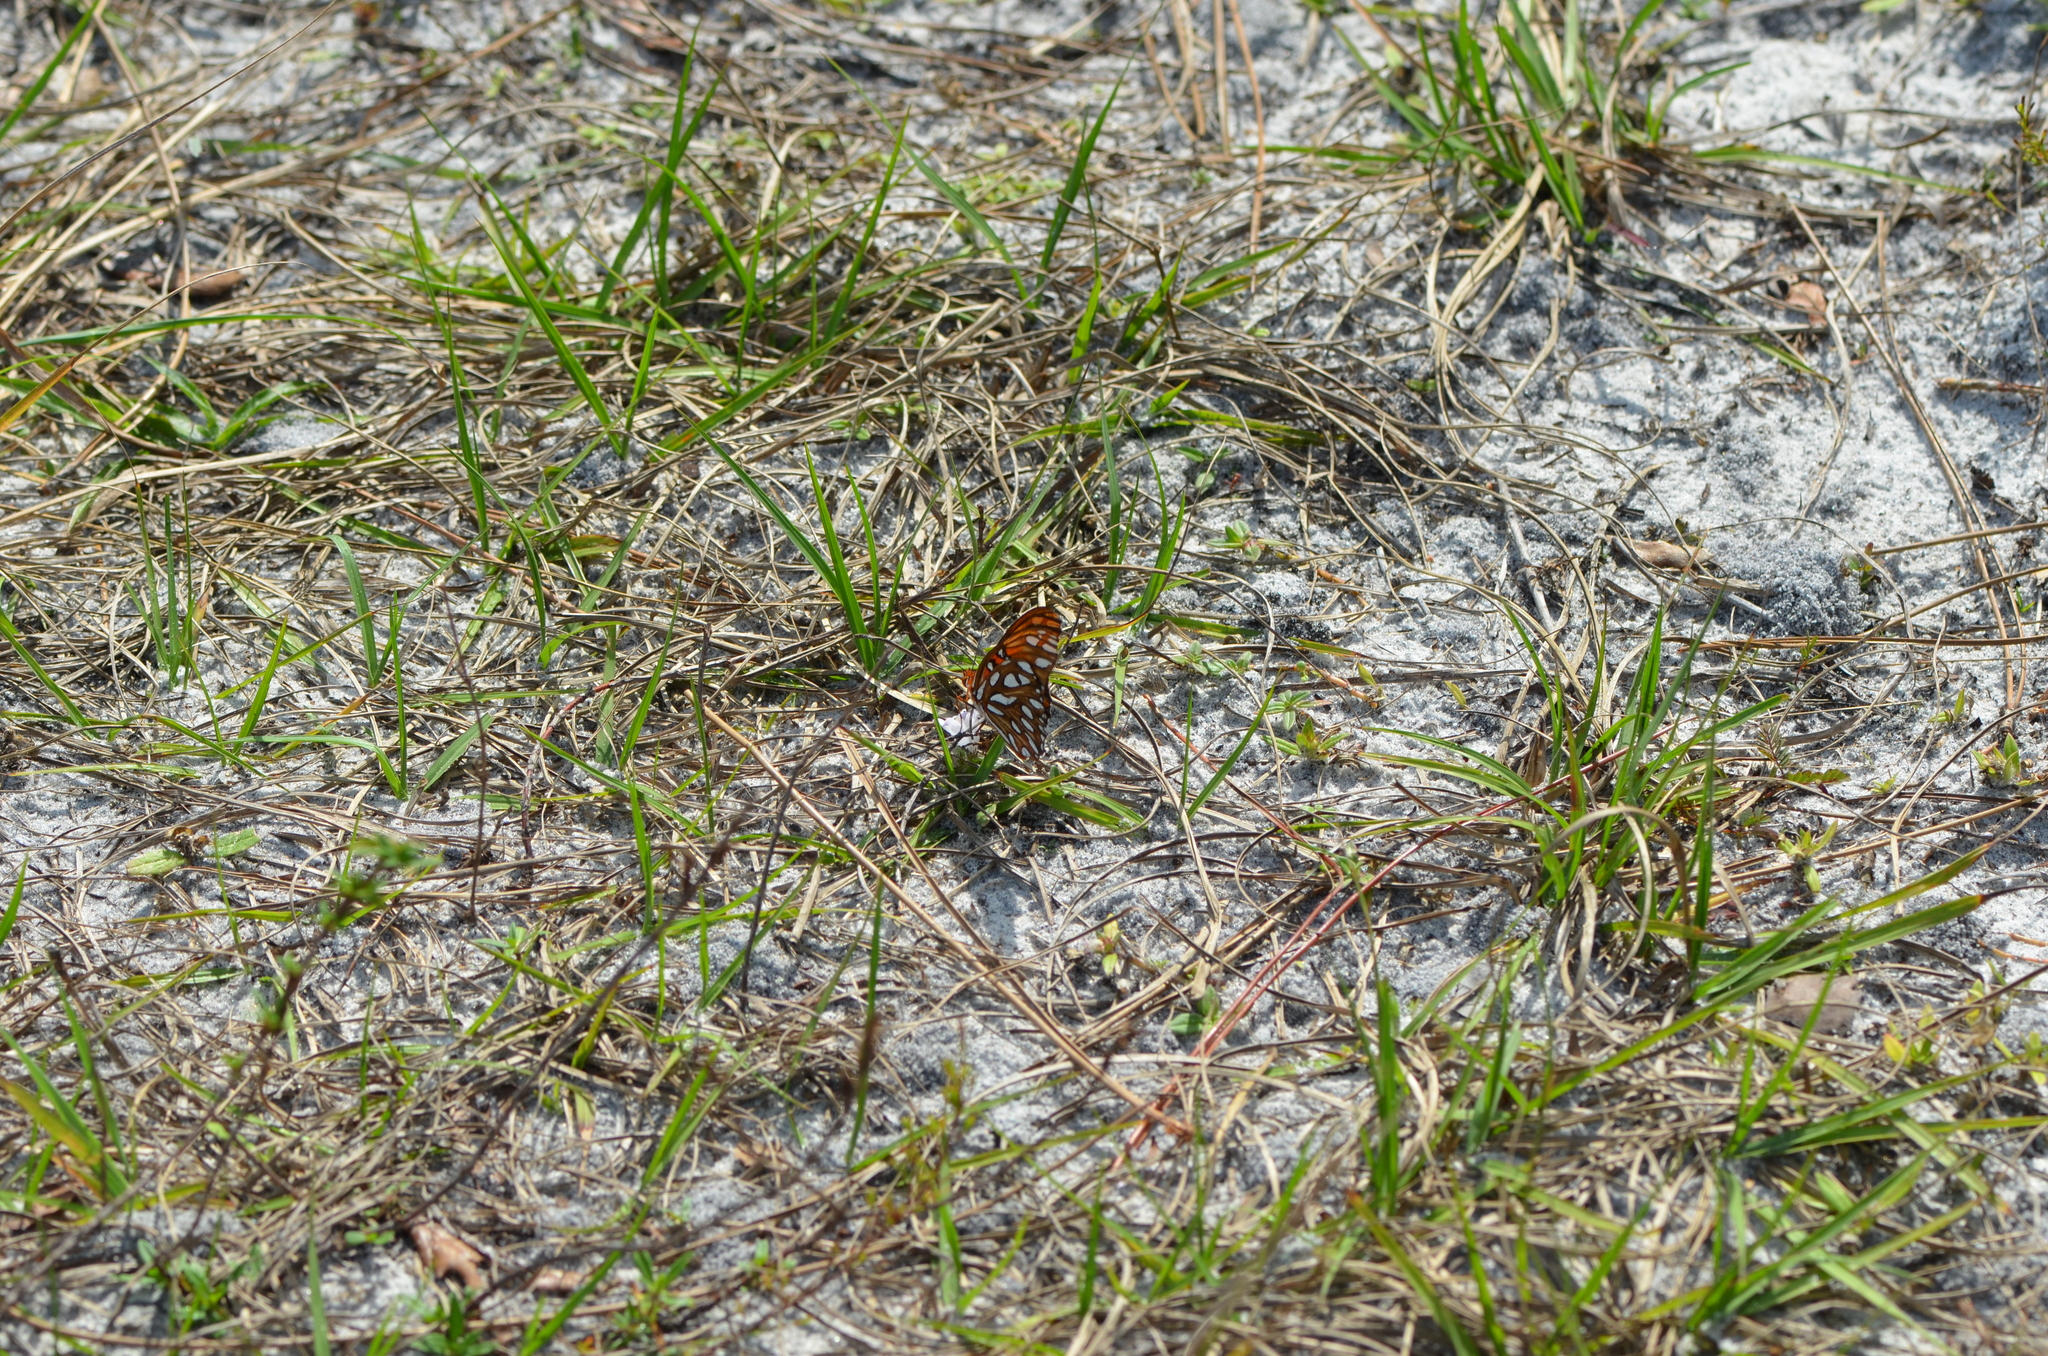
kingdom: Animalia
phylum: Arthropoda
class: Insecta
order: Lepidoptera
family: Nymphalidae
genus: Dione
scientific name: Dione vanillae
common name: Gulf fritillary
